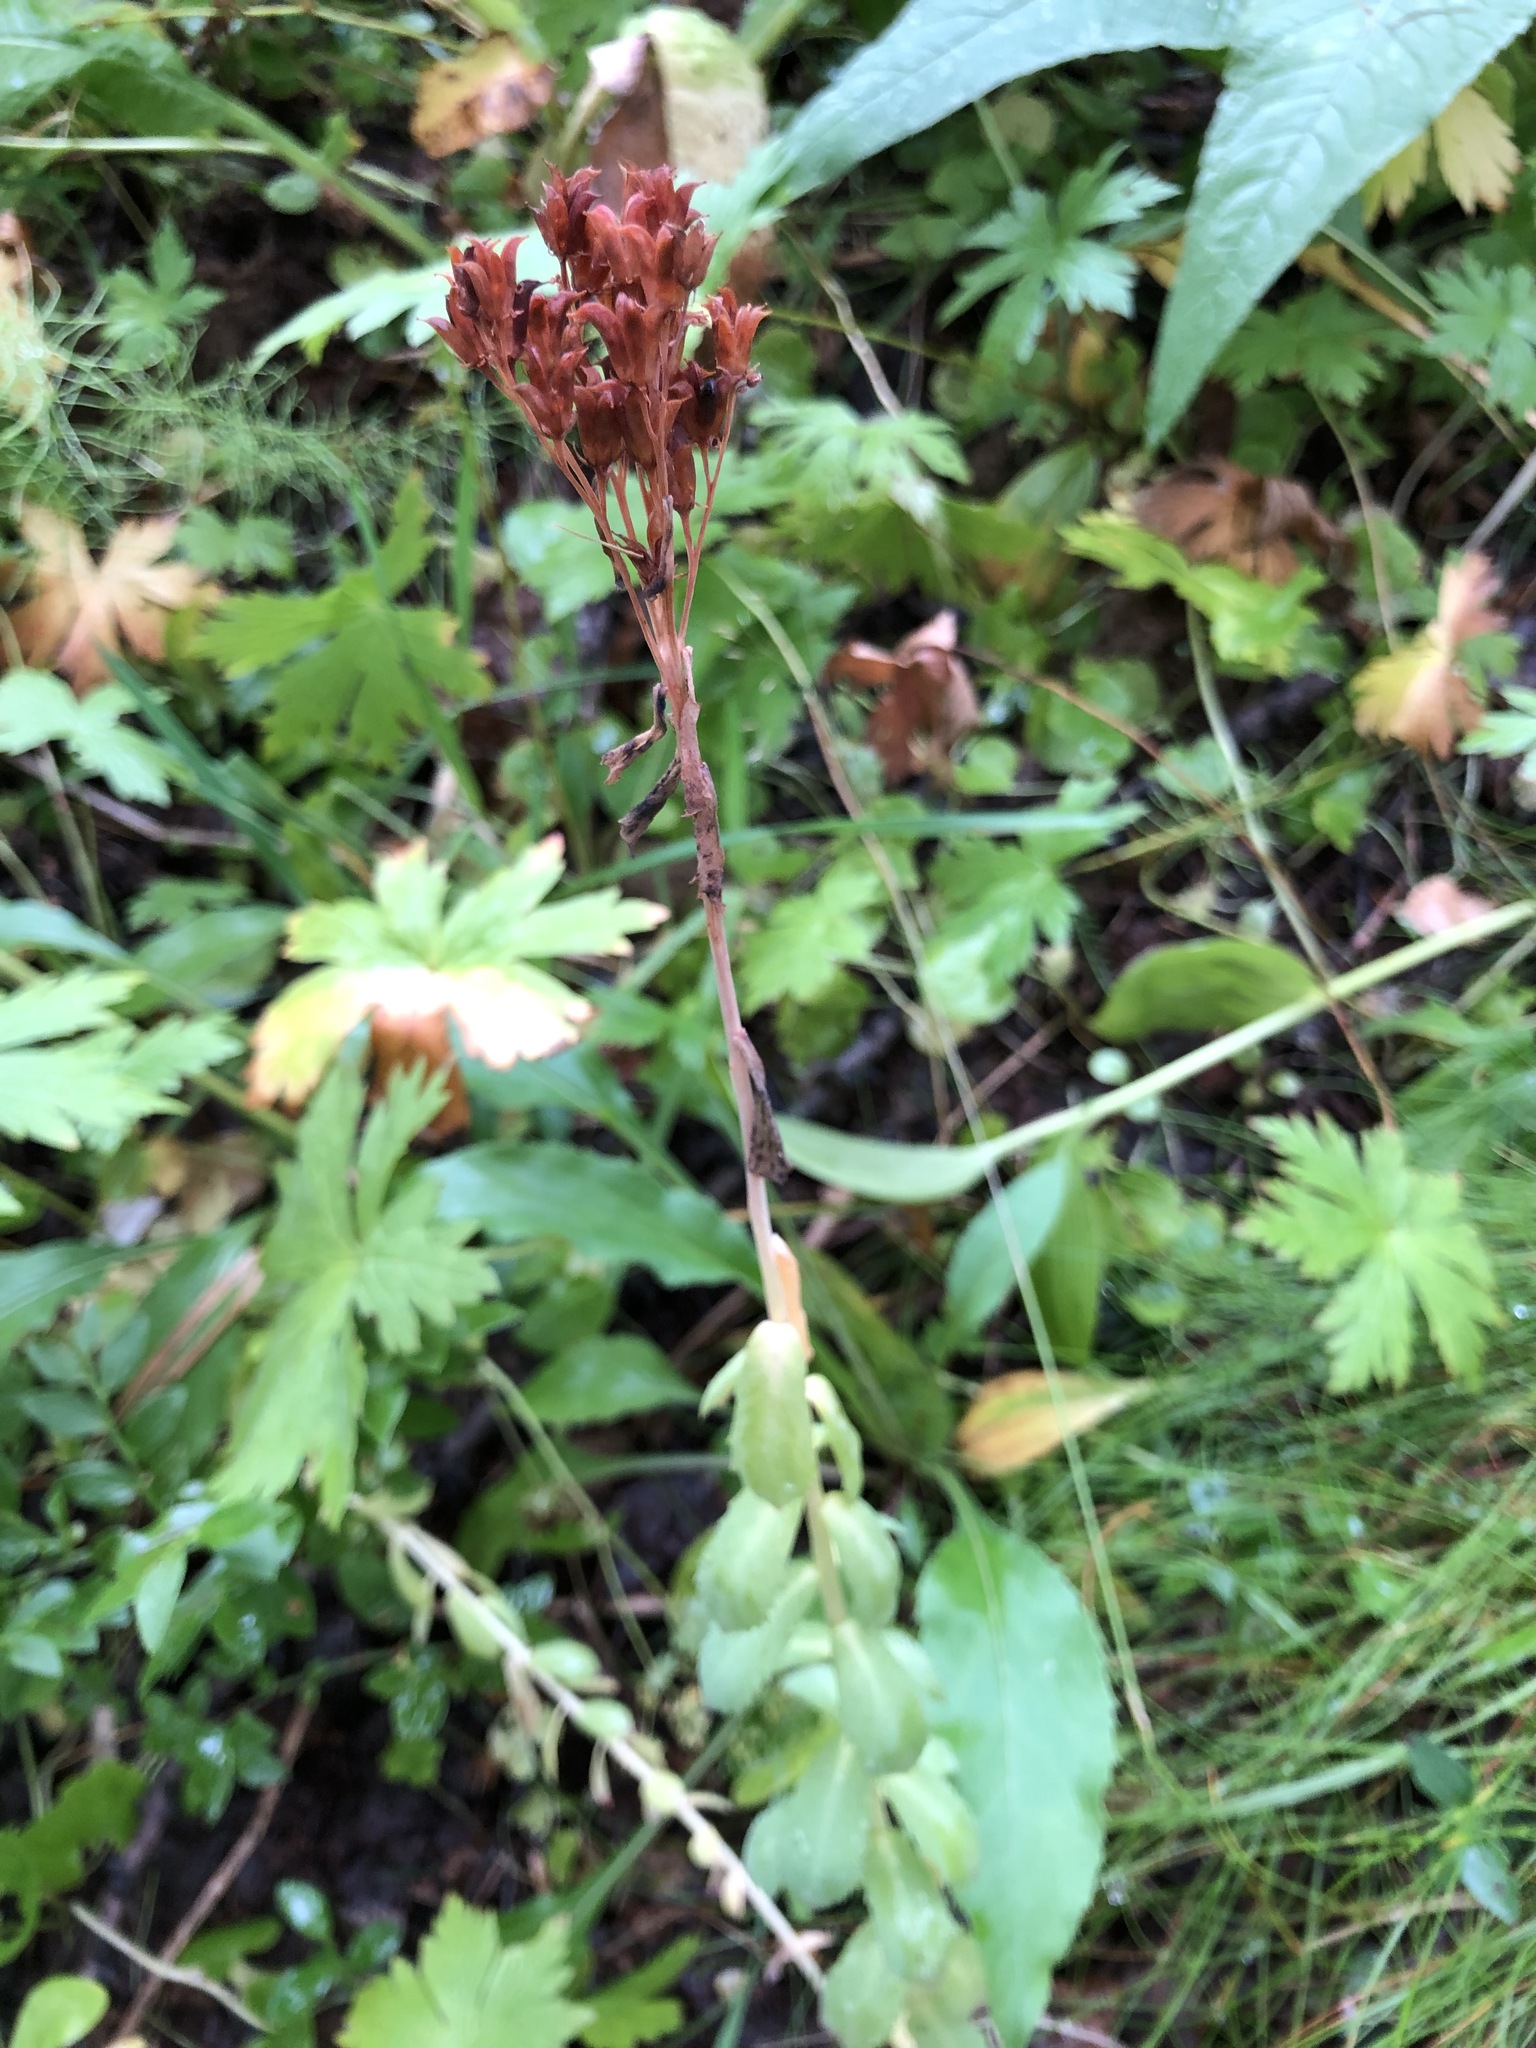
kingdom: Plantae
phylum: Tracheophyta
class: Magnoliopsida
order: Saxifragales
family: Crassulaceae
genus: Rhodiola
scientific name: Rhodiola rosea
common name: Roseroot
